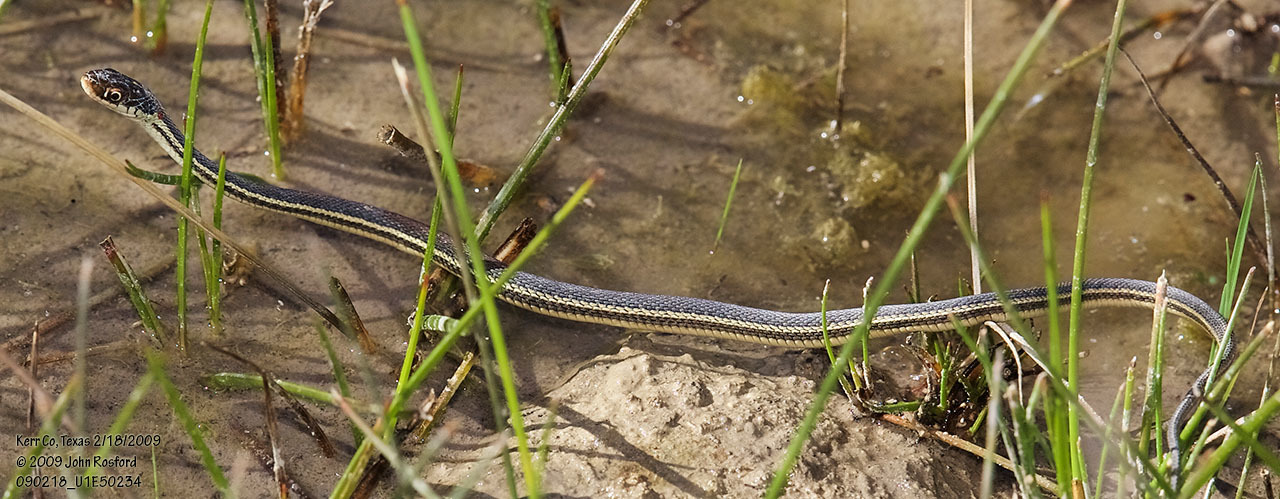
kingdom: Animalia
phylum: Chordata
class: Squamata
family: Colubridae
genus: Thamnophis
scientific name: Thamnophis proximus
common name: Western ribbon snake
